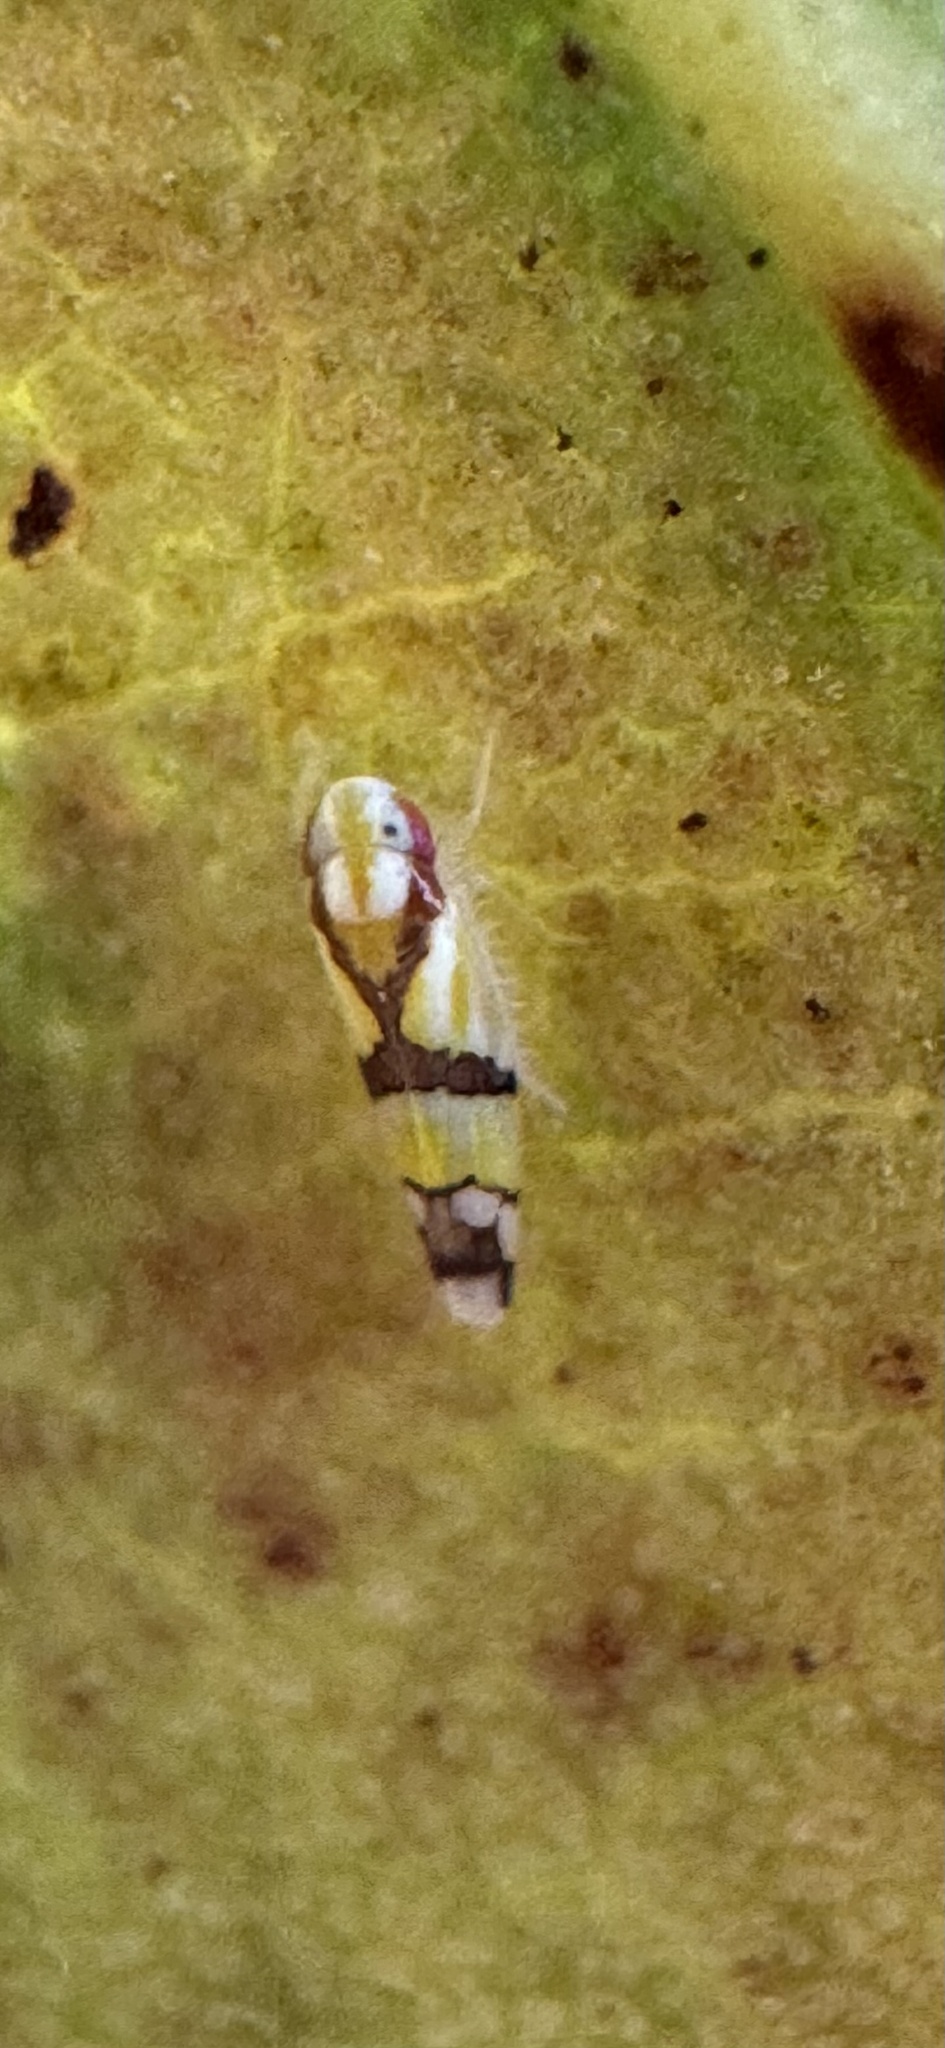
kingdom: Animalia
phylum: Arthropoda
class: Insecta
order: Hemiptera
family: Cicadellidae
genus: Rabela
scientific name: Rabela tabebuiae
